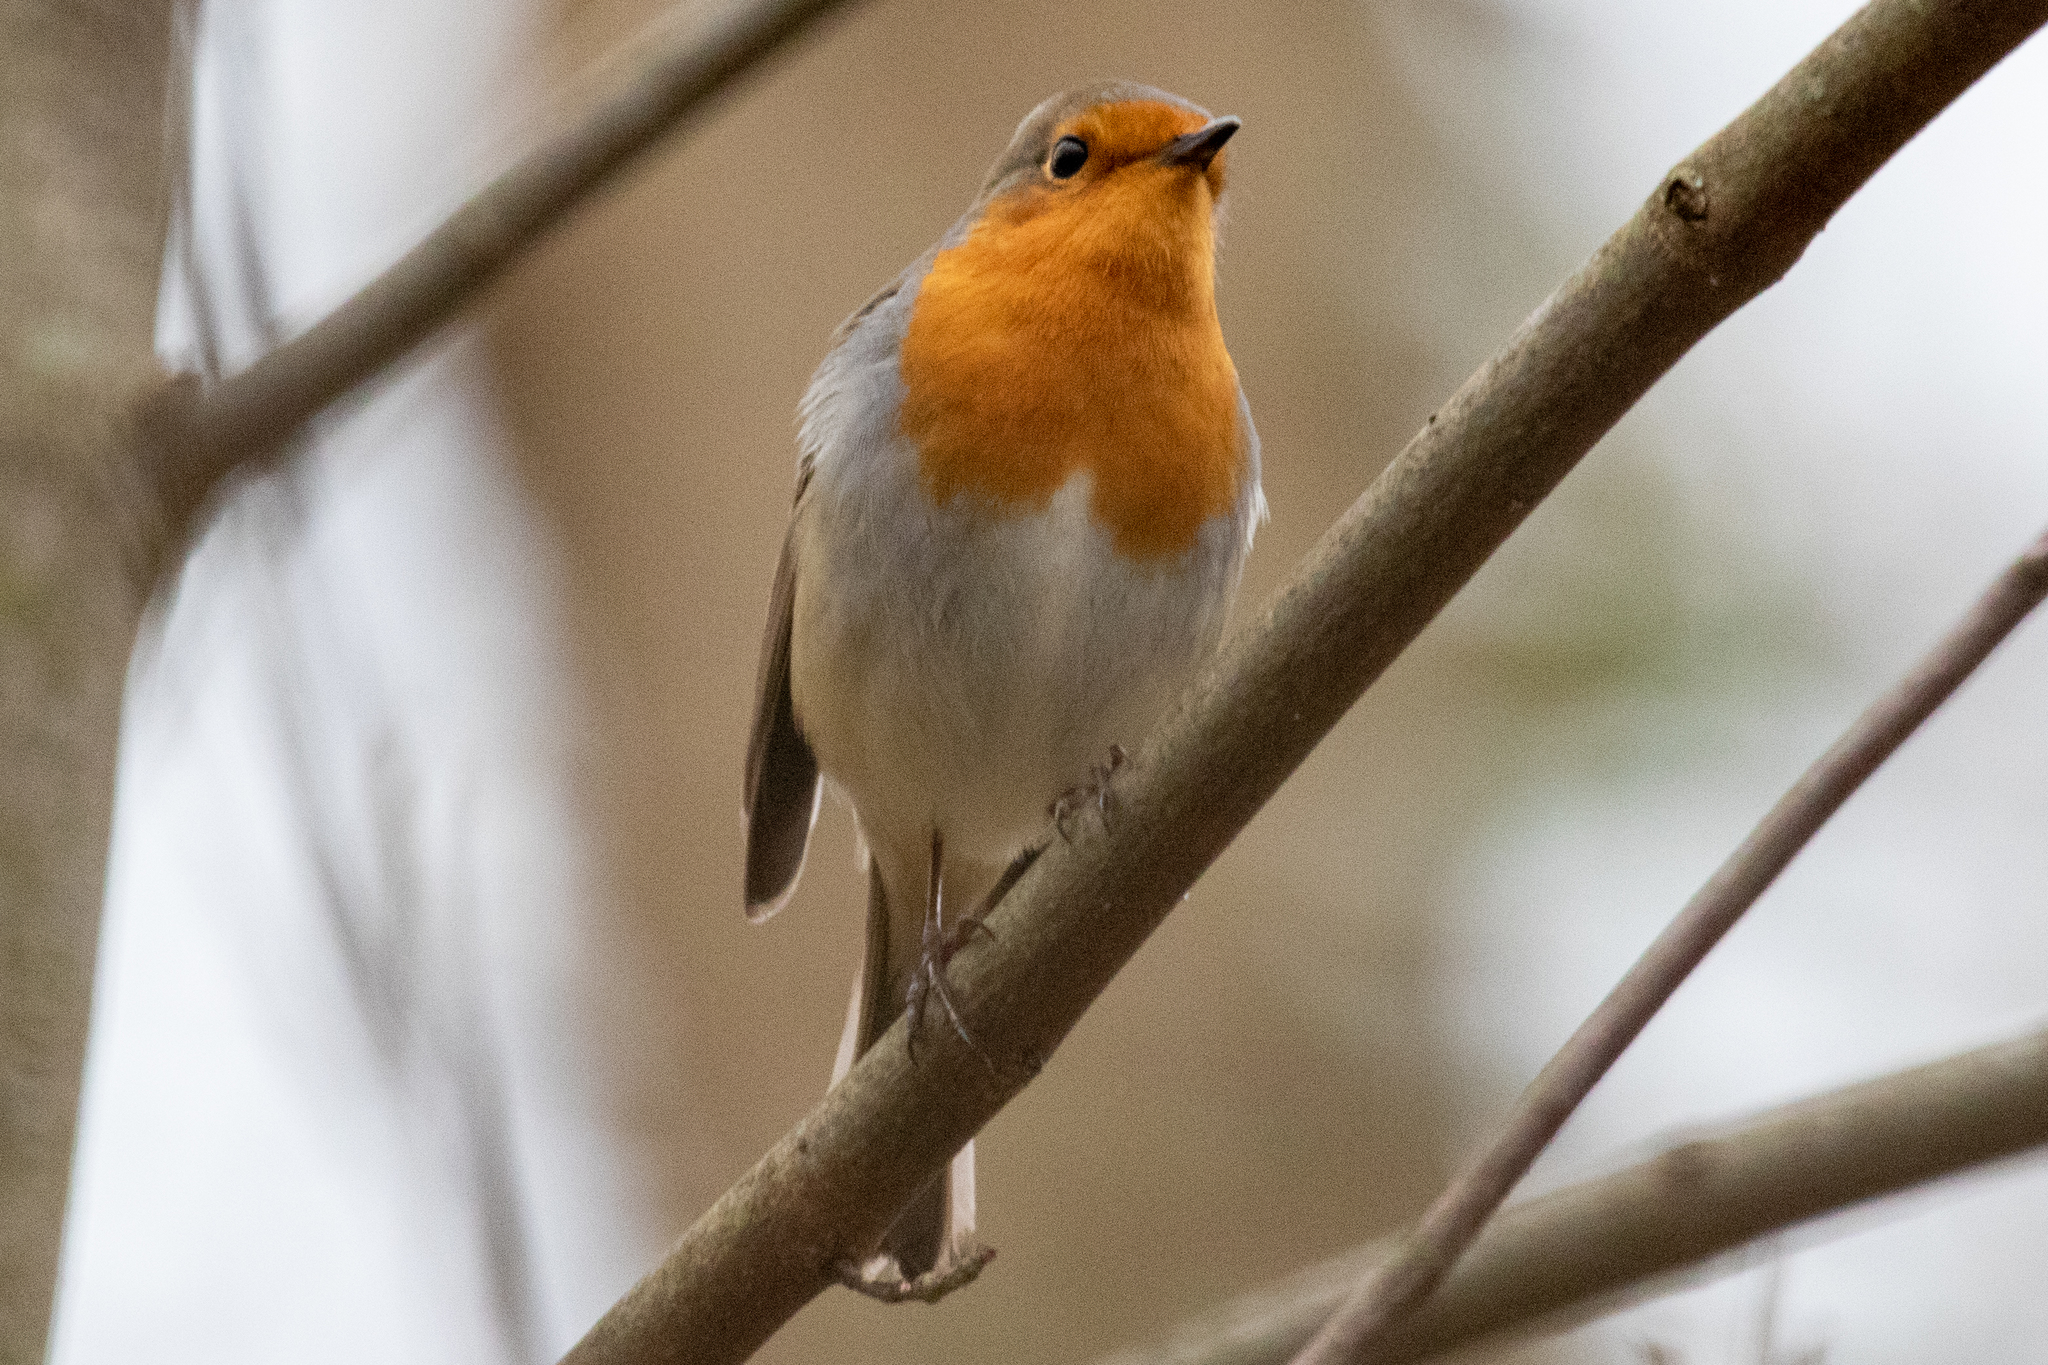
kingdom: Animalia
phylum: Chordata
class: Aves
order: Passeriformes
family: Muscicapidae
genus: Erithacus
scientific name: Erithacus rubecula
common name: European robin
